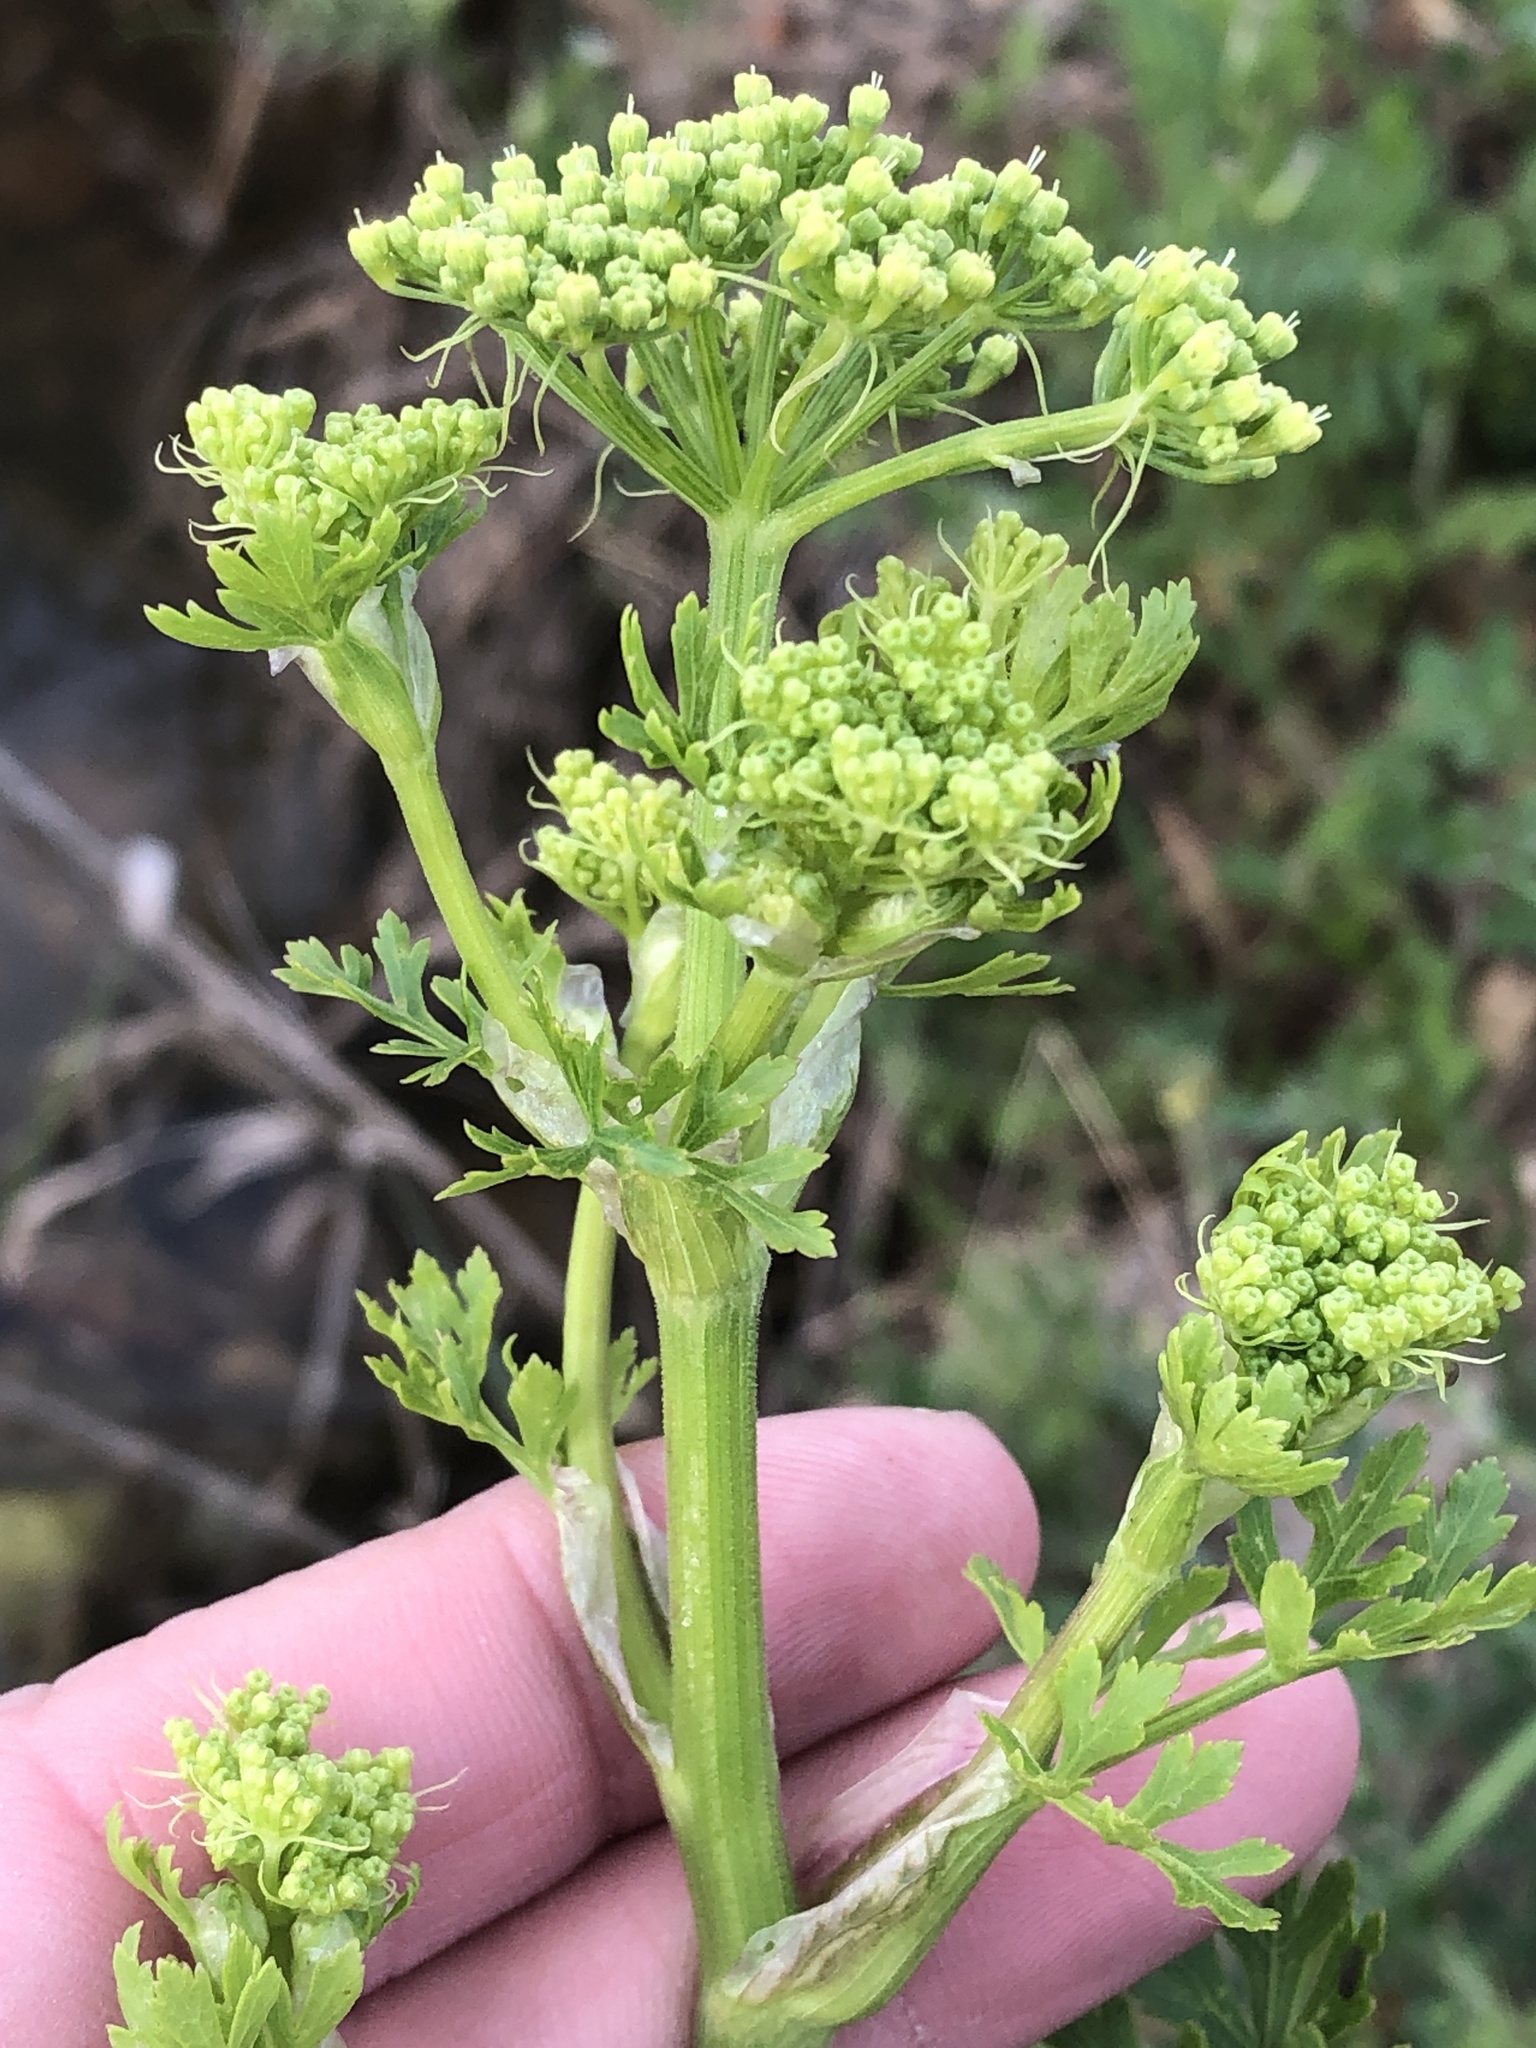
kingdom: Plantae
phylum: Tracheophyta
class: Magnoliopsida
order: Apiales
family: Apiaceae
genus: Polytaenia
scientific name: Polytaenia texana
